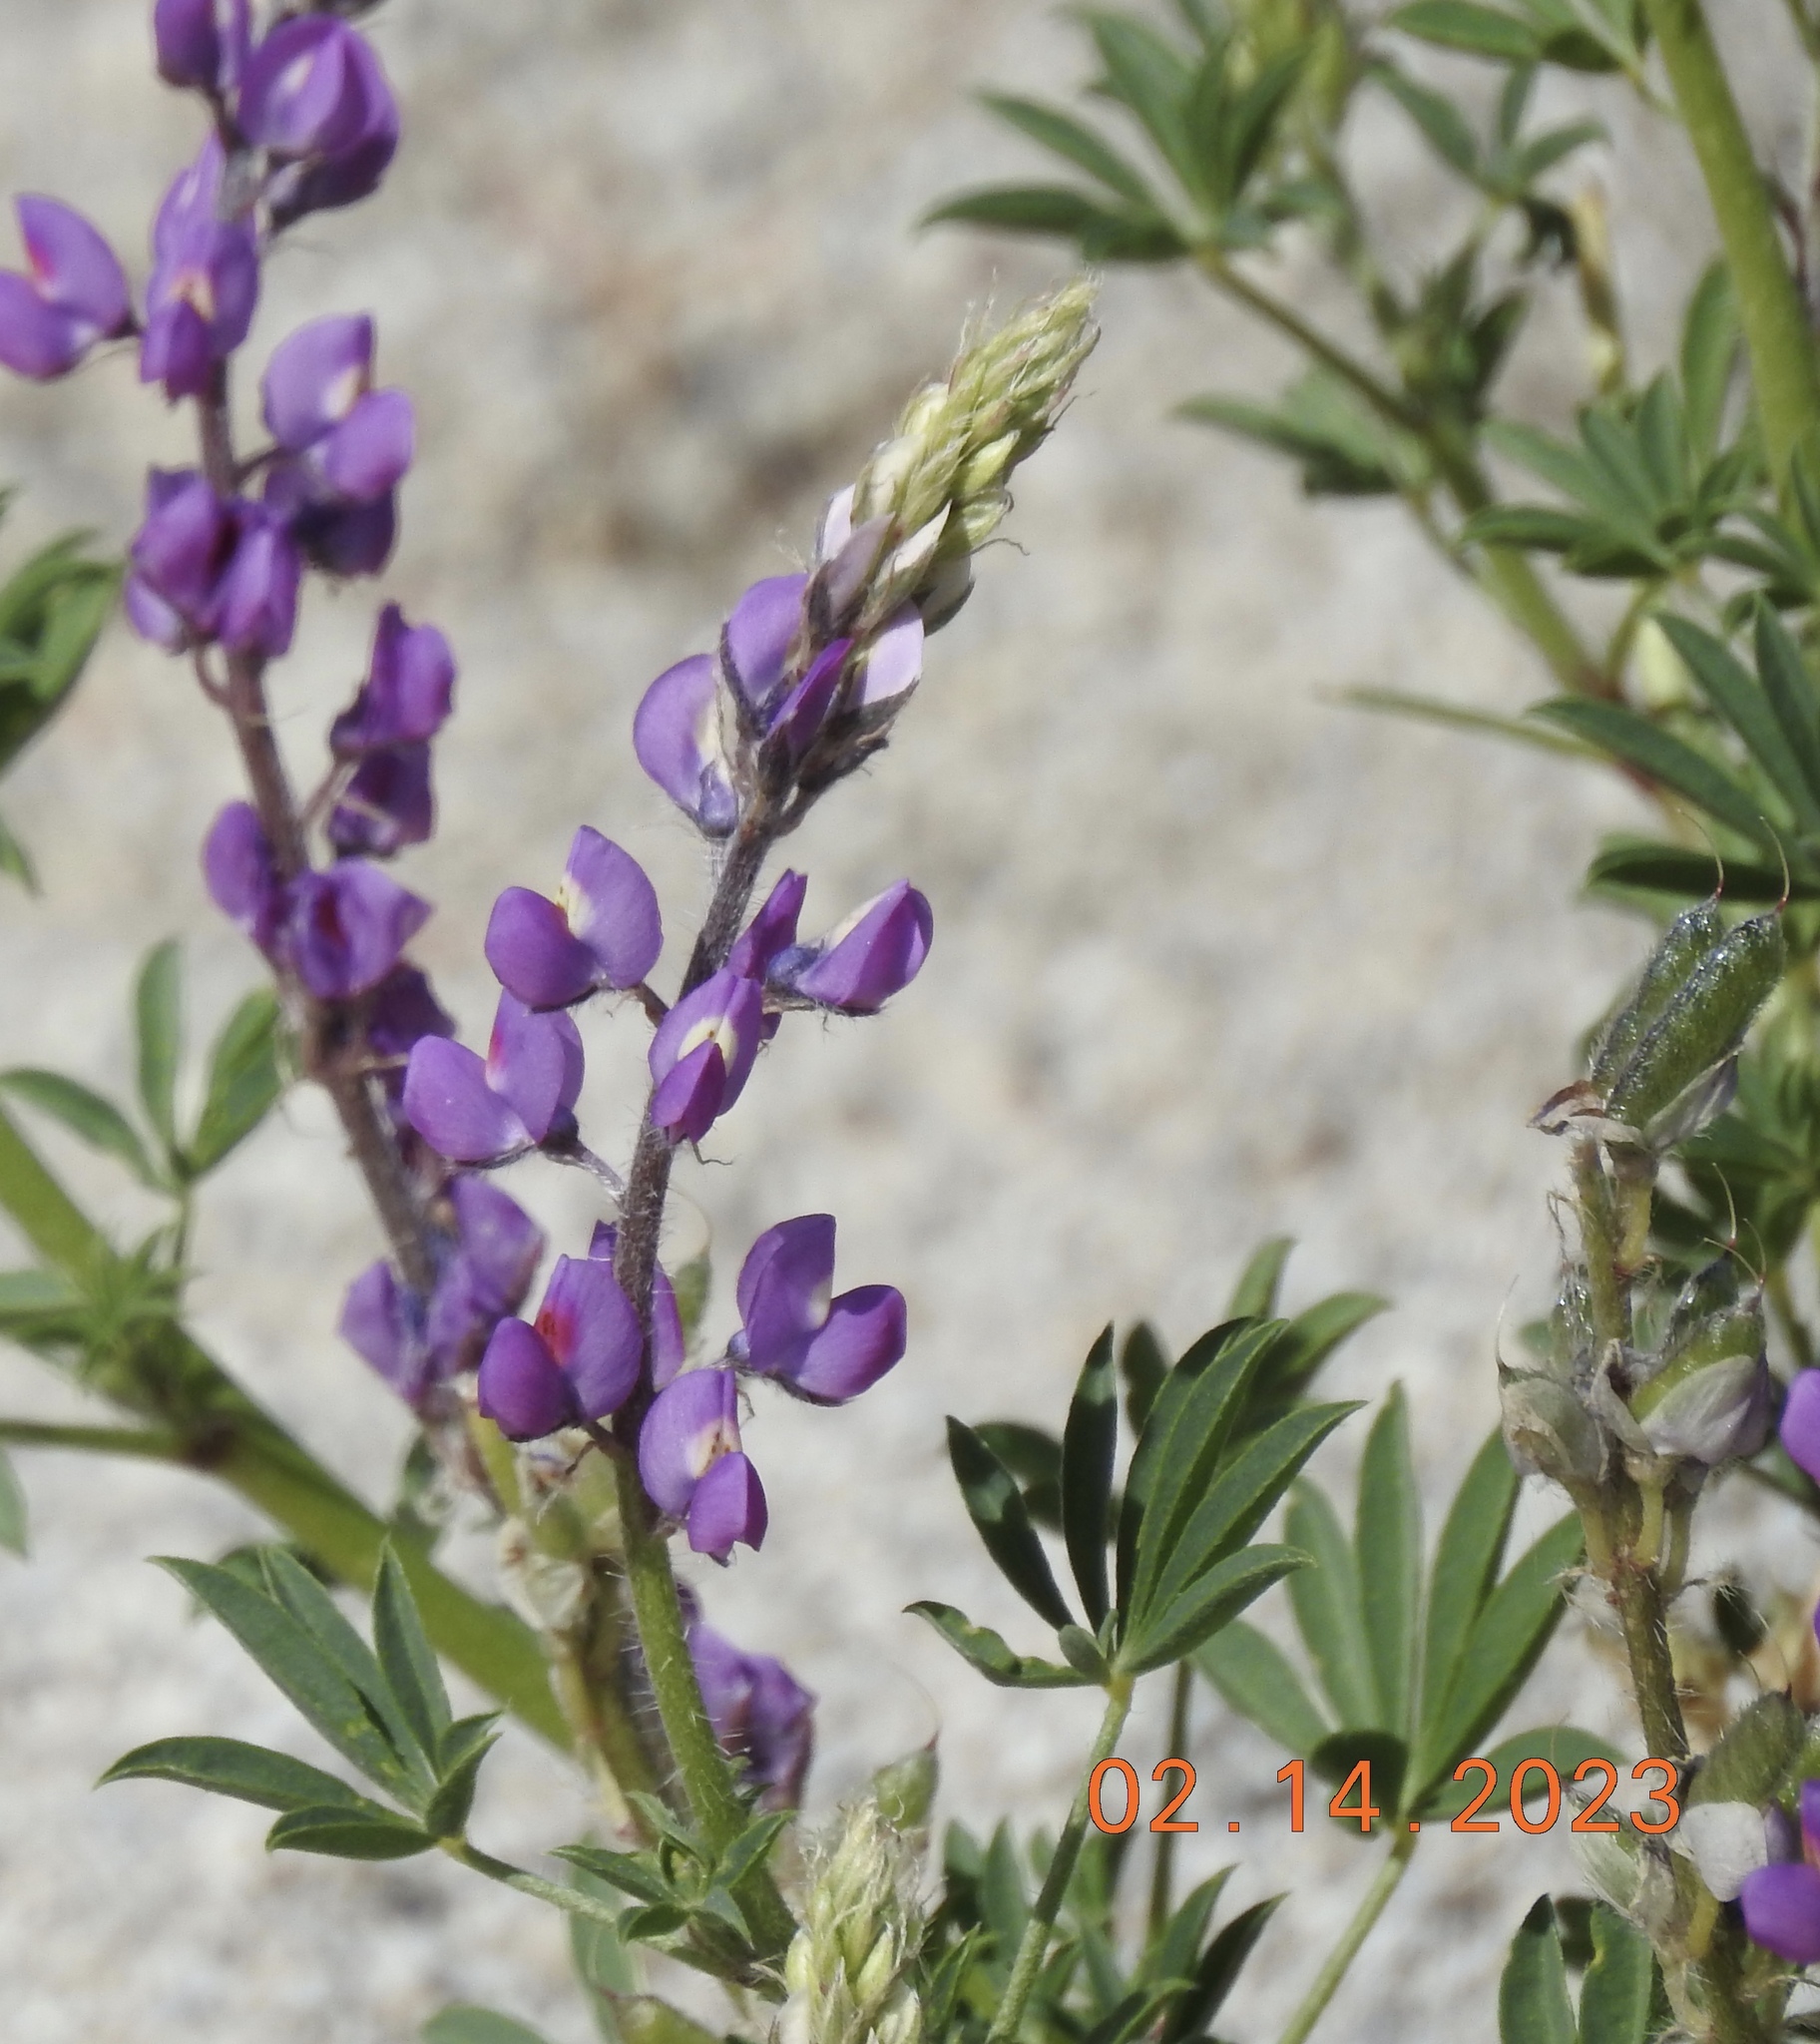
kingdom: Plantae
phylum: Tracheophyta
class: Magnoliopsida
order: Fabales
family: Fabaceae
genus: Lupinus
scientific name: Lupinus arizonicus
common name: Arizona lupine
